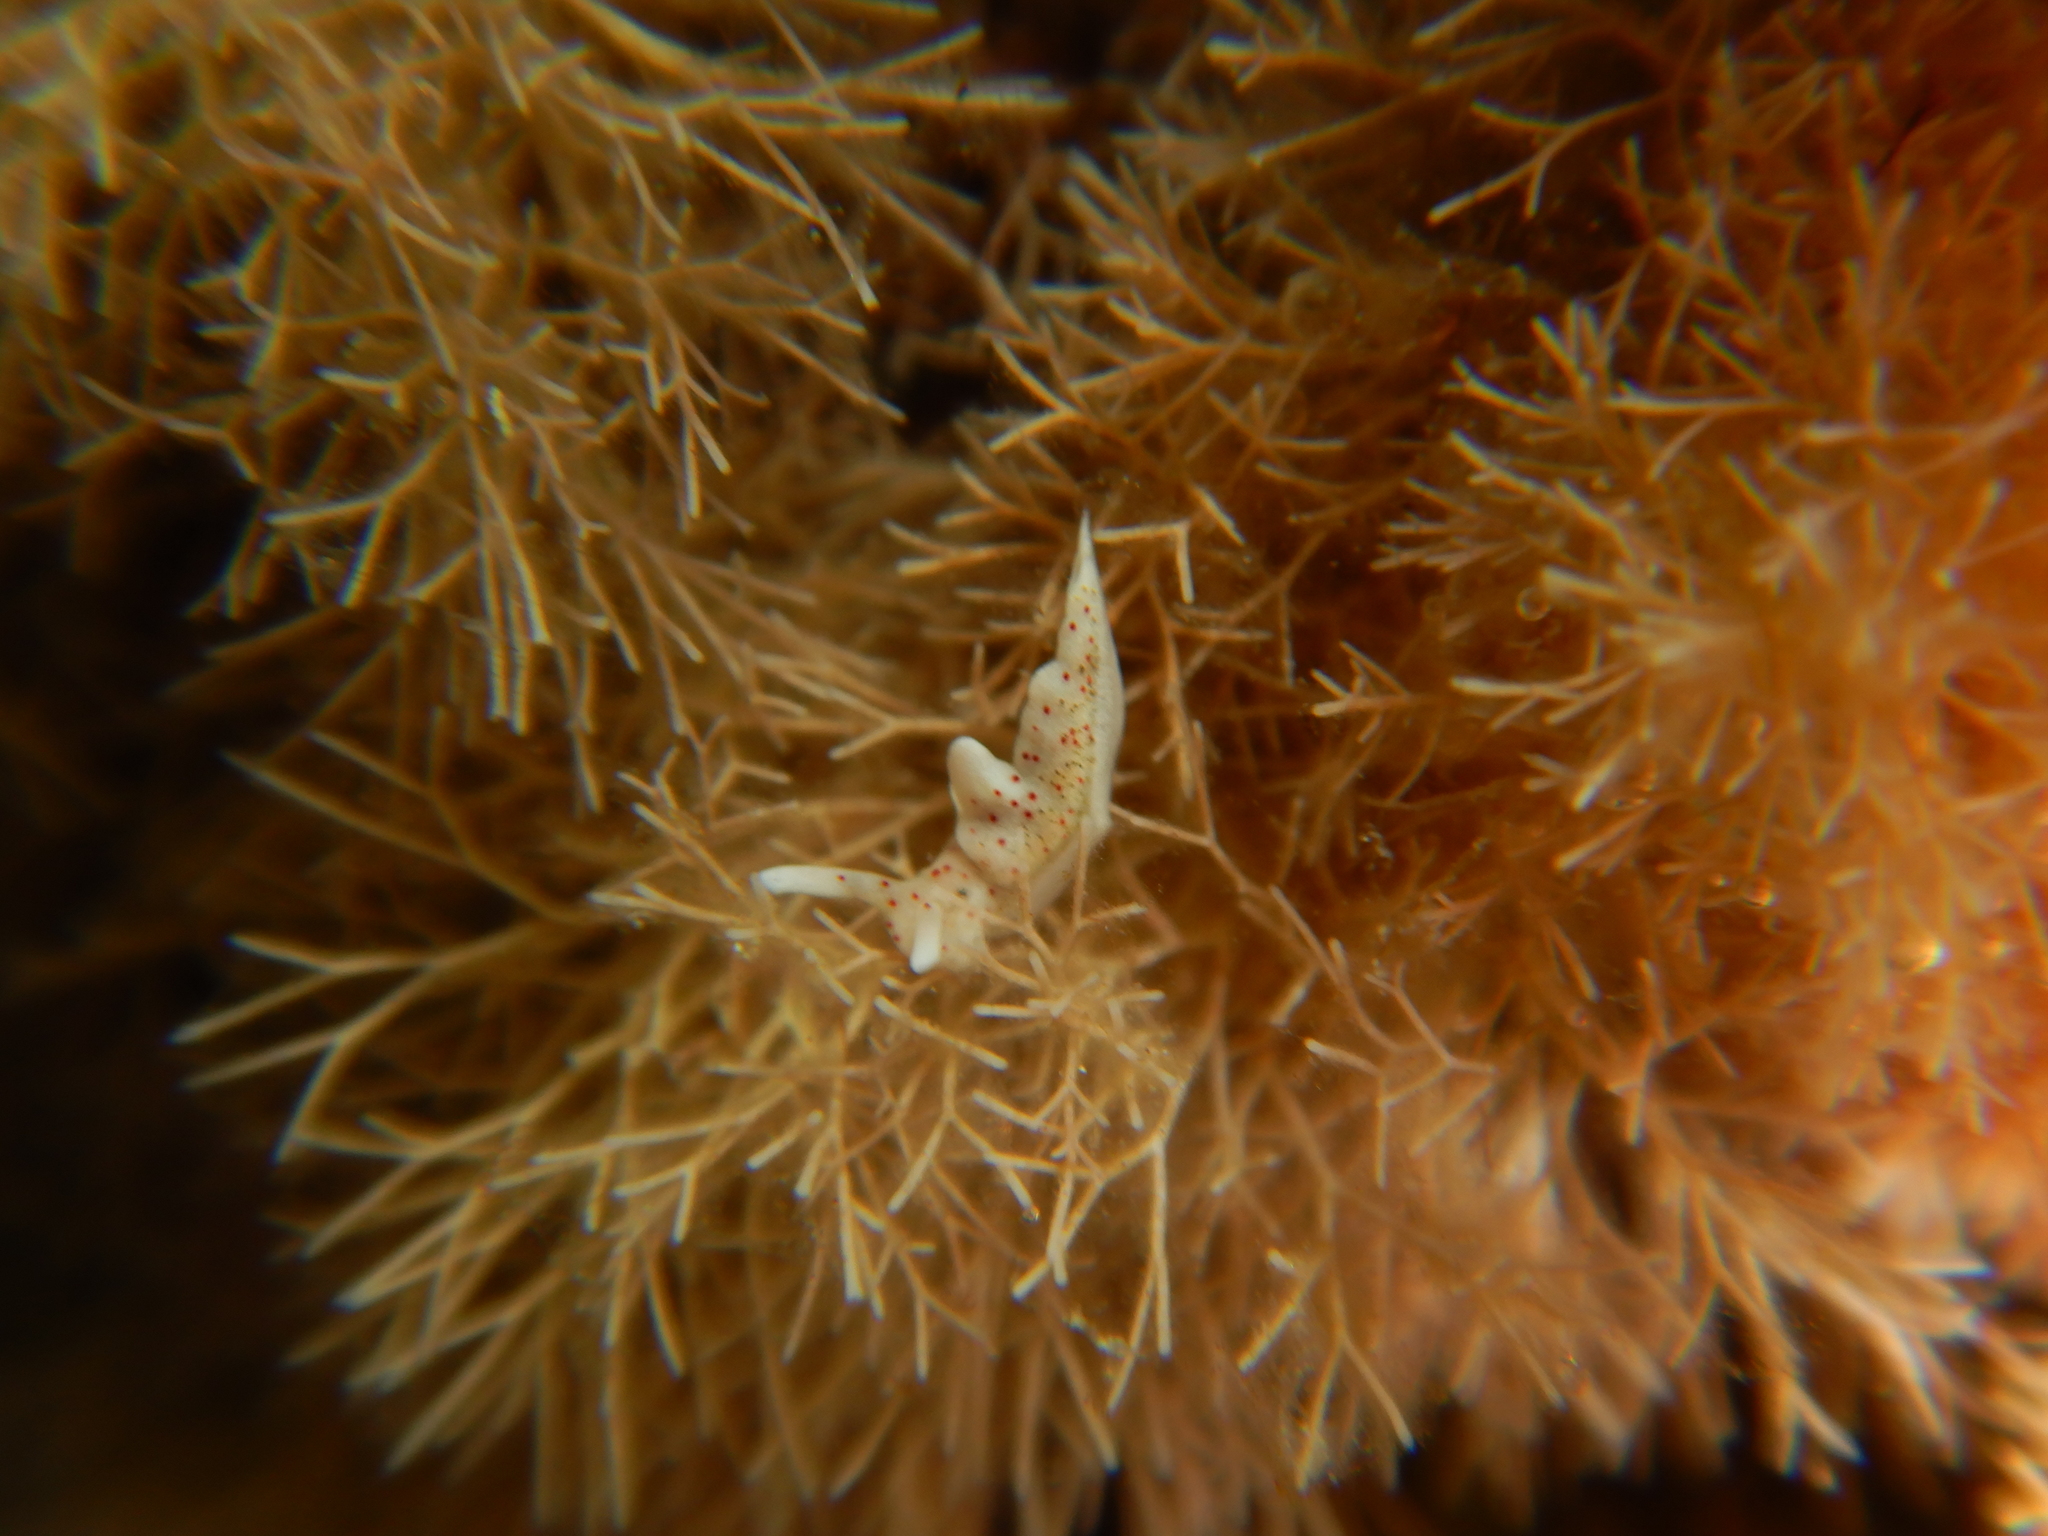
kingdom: Animalia
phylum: Mollusca
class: Gastropoda
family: Plakobranchidae
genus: Elysia
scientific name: Elysia timida
